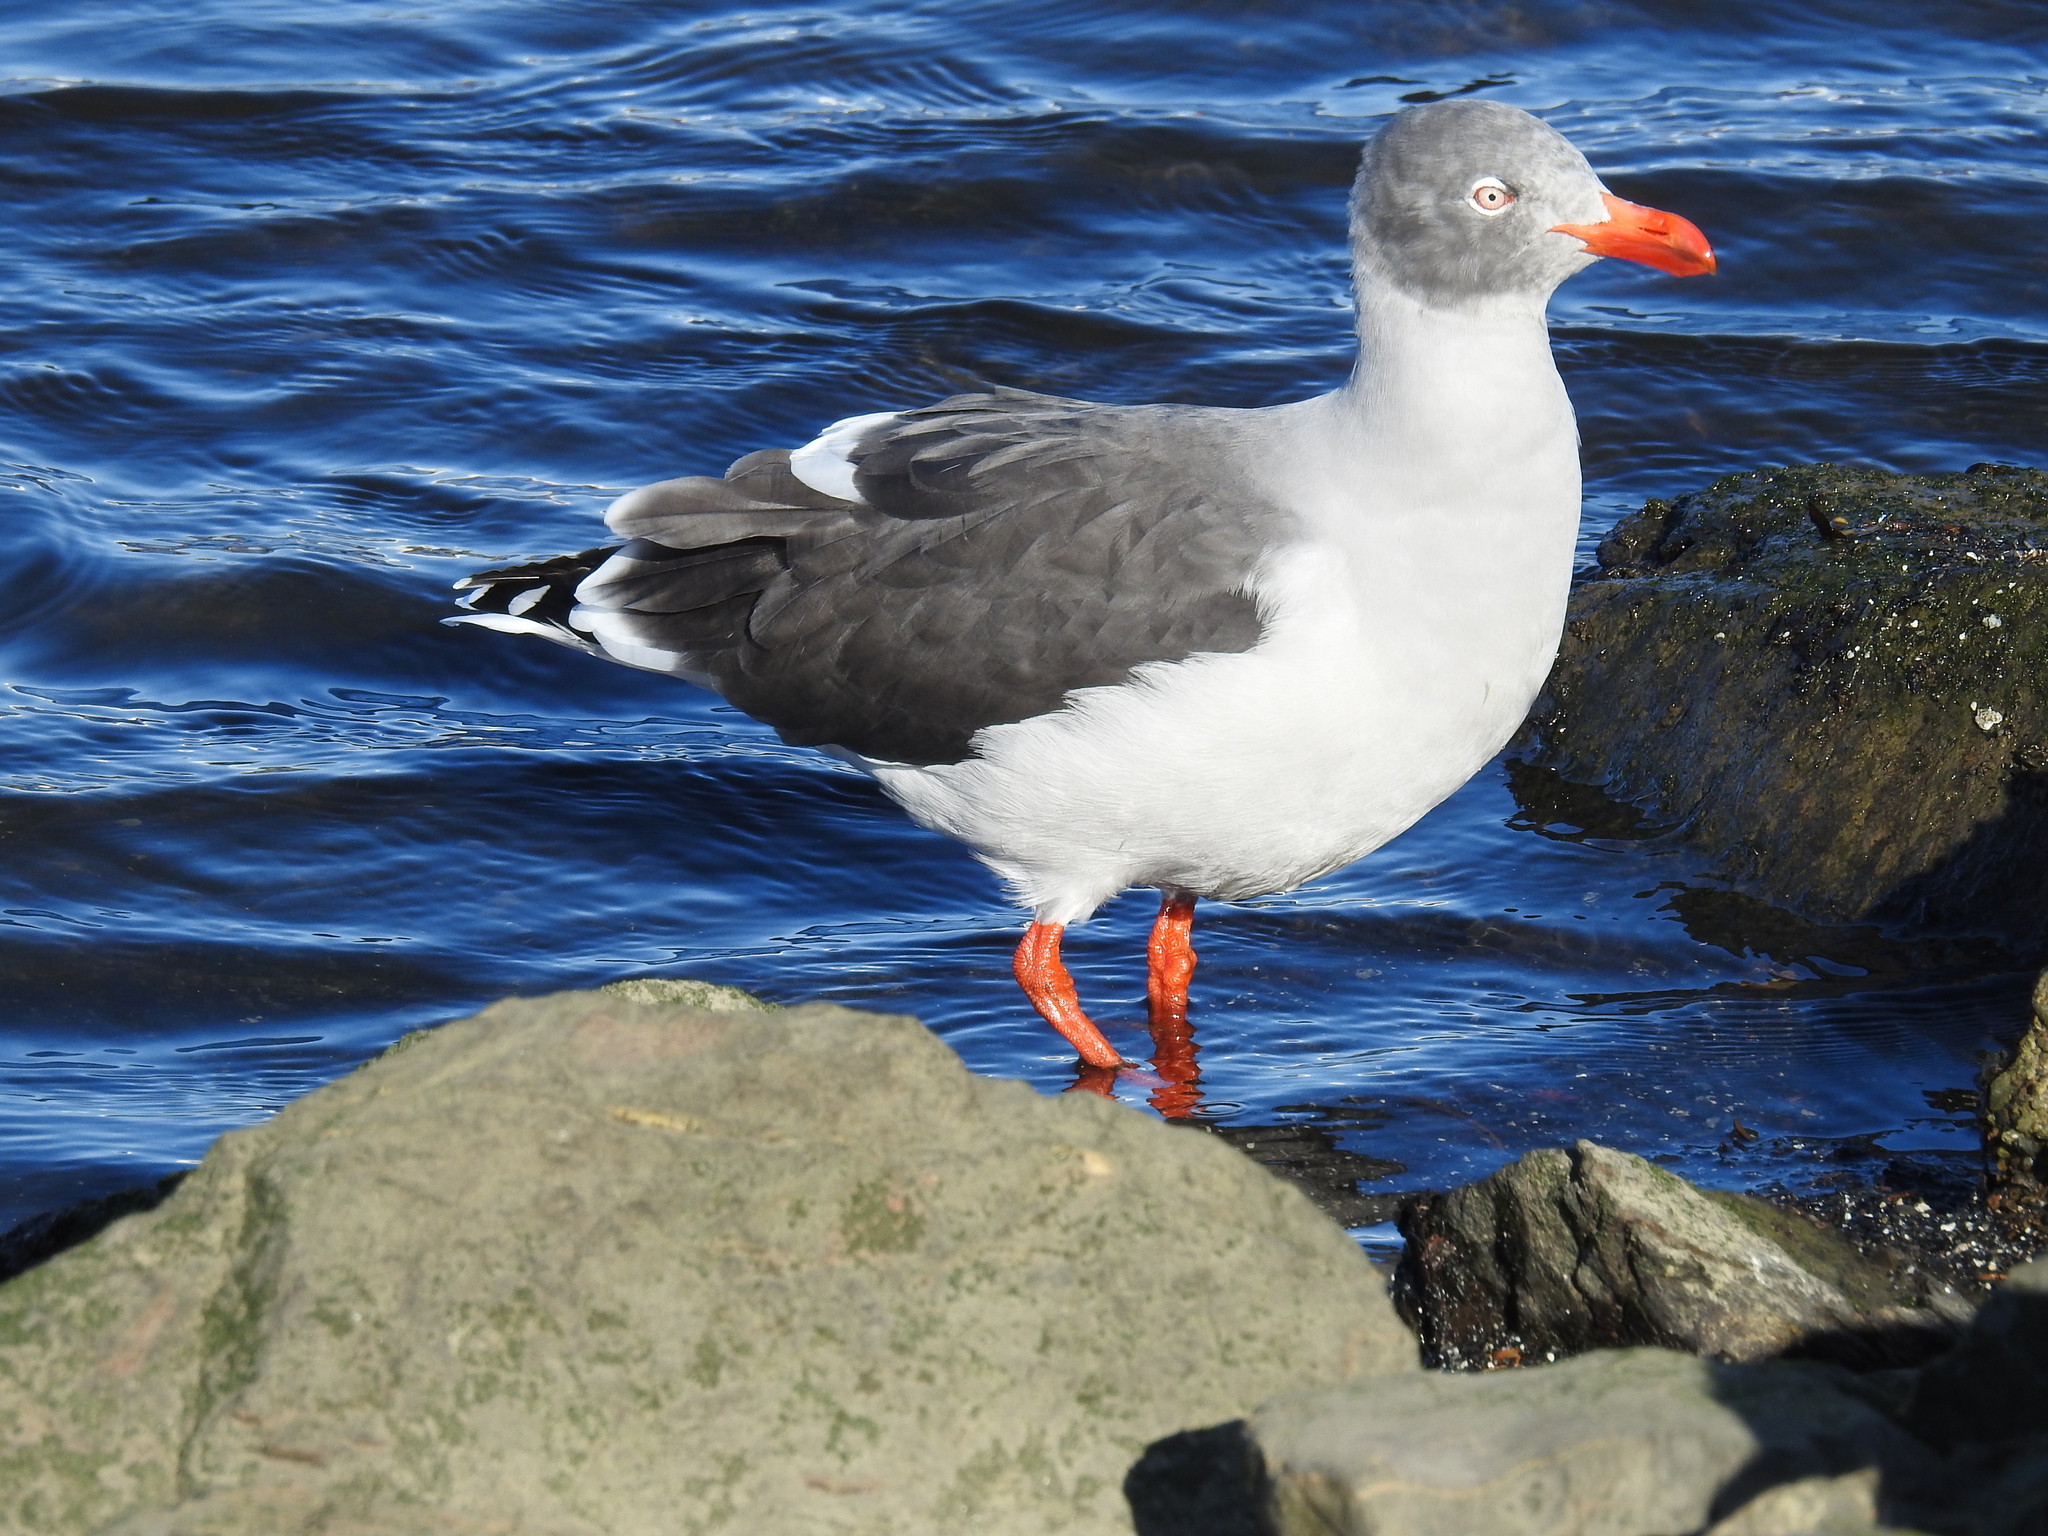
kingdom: Animalia
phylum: Chordata
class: Aves
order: Charadriiformes
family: Laridae
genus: Leucophaeus
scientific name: Leucophaeus scoresbii
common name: Dolphin gull
